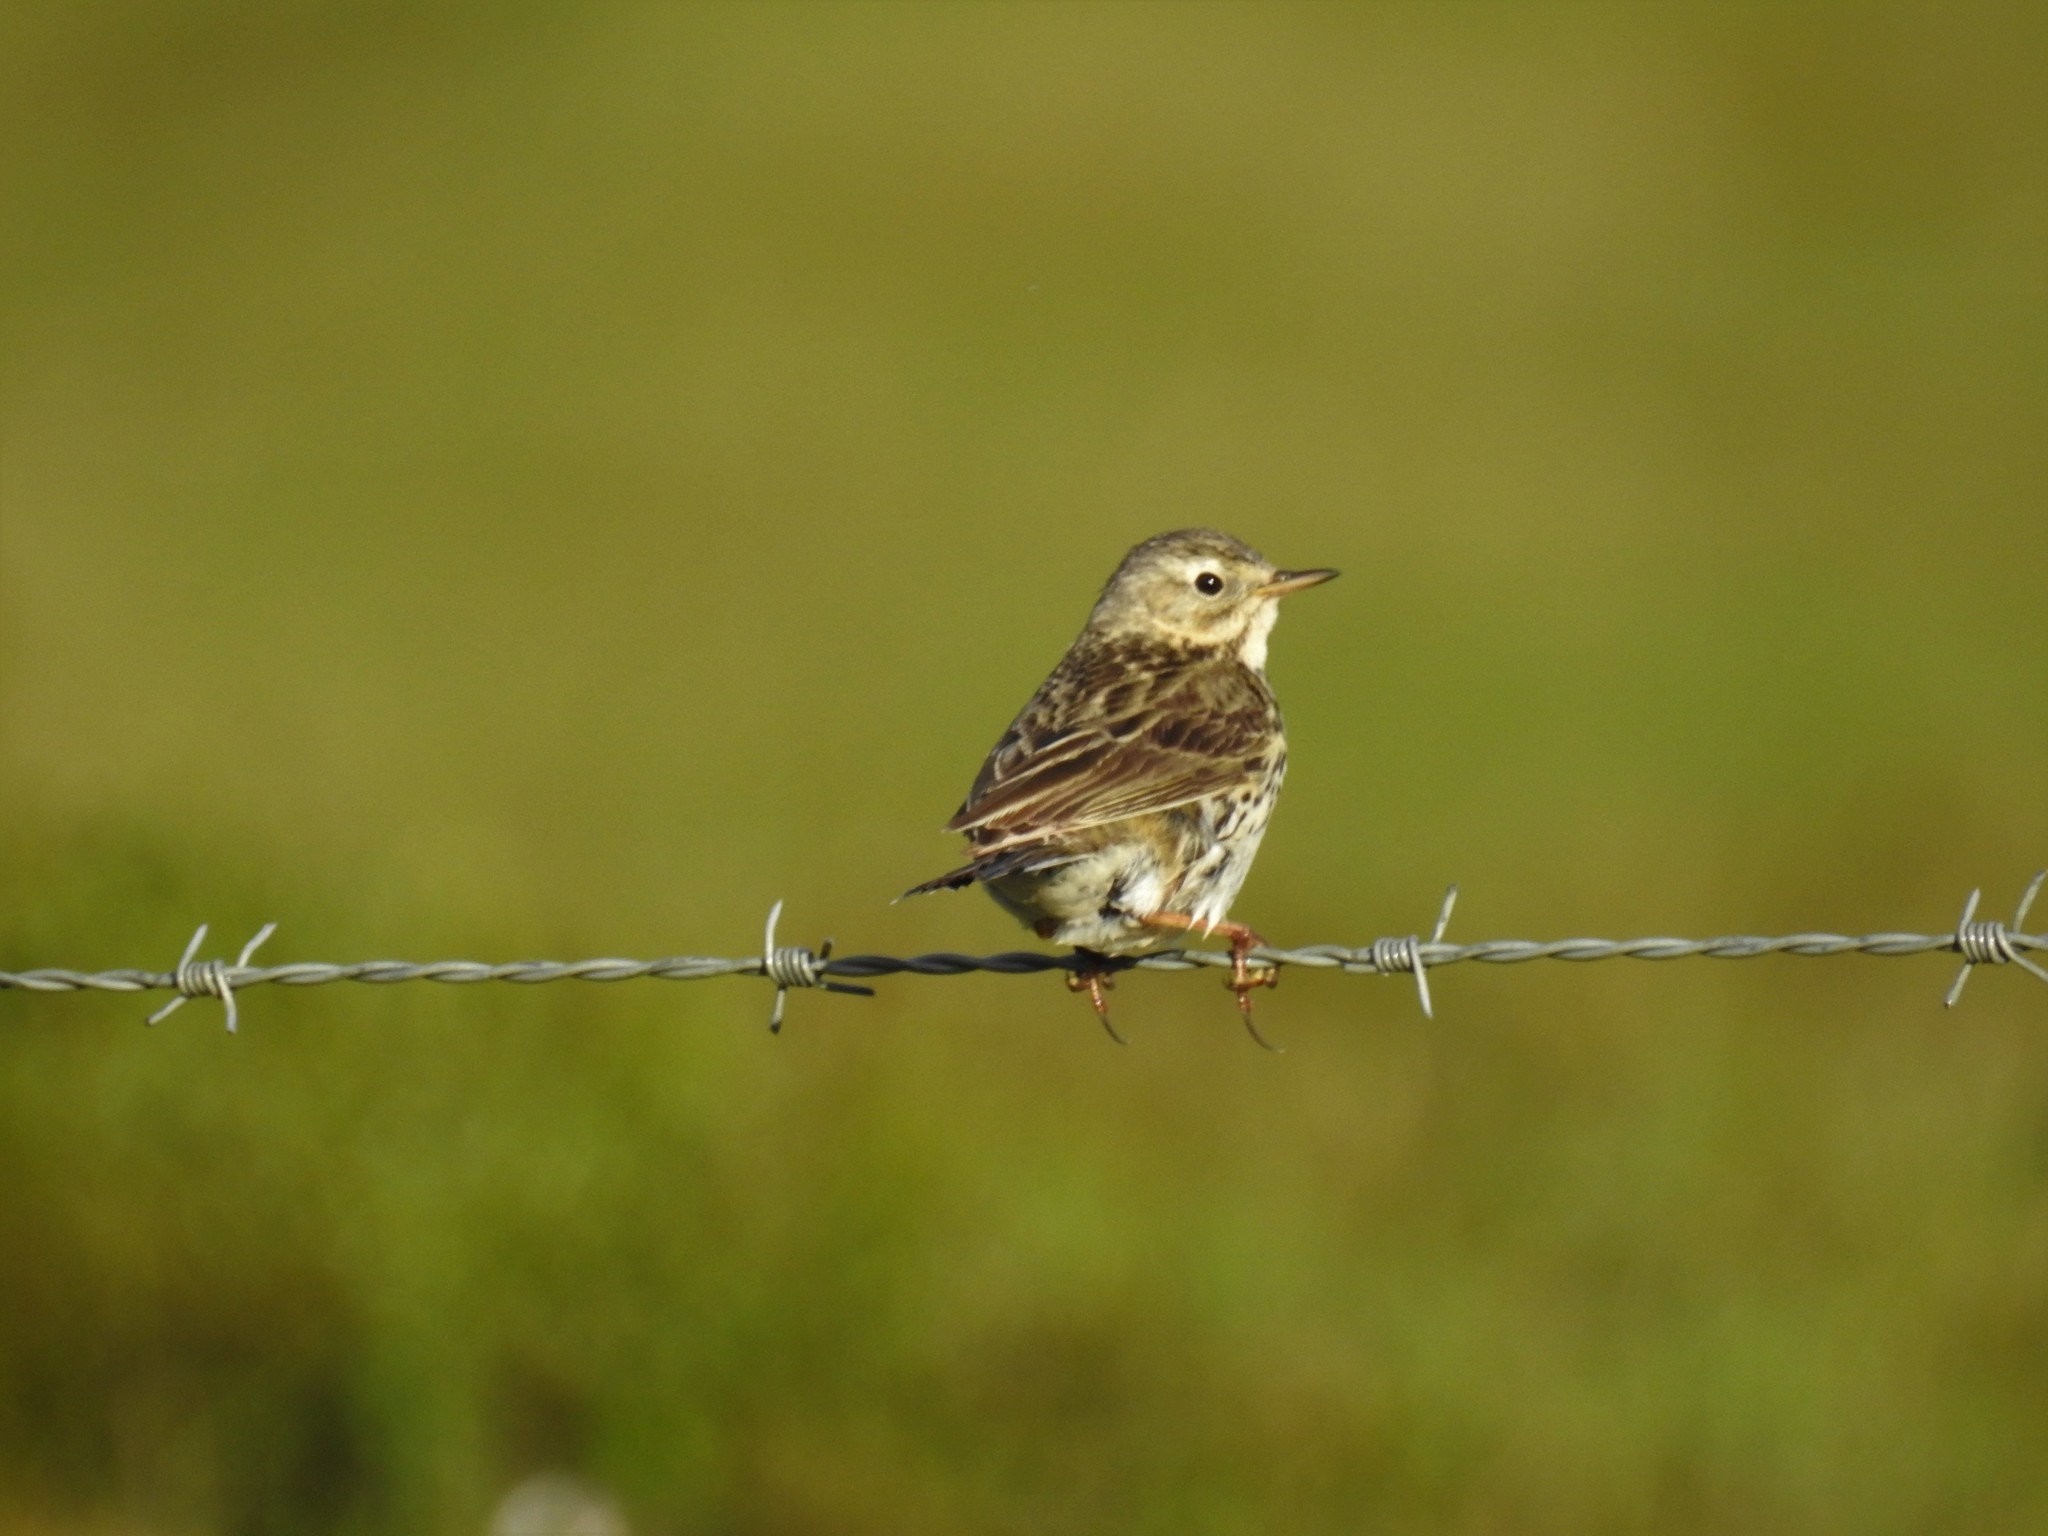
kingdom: Animalia
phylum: Chordata
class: Aves
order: Passeriformes
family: Motacillidae
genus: Anthus
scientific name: Anthus pratensis
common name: Meadow pipit
